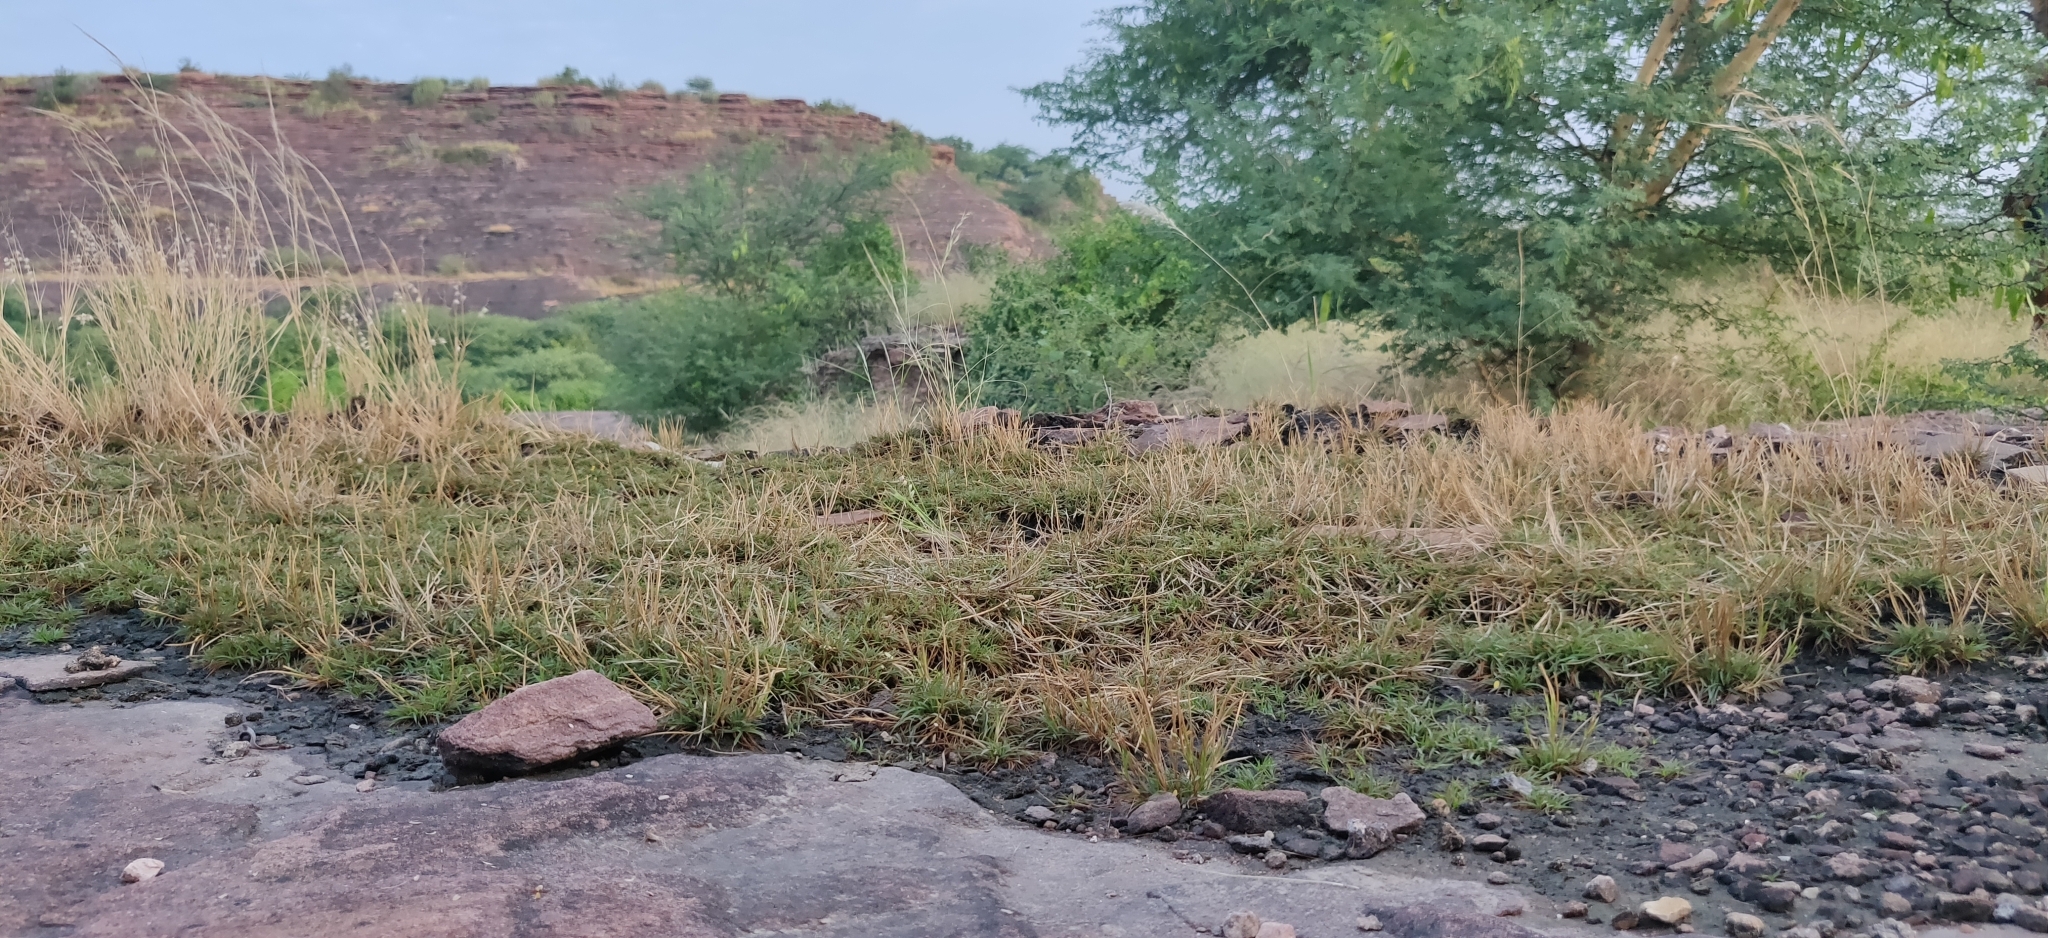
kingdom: Plantae
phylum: Tracheophyta
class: Liliopsida
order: Poales
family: Poaceae
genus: Oropetium
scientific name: Oropetium thomaeum
